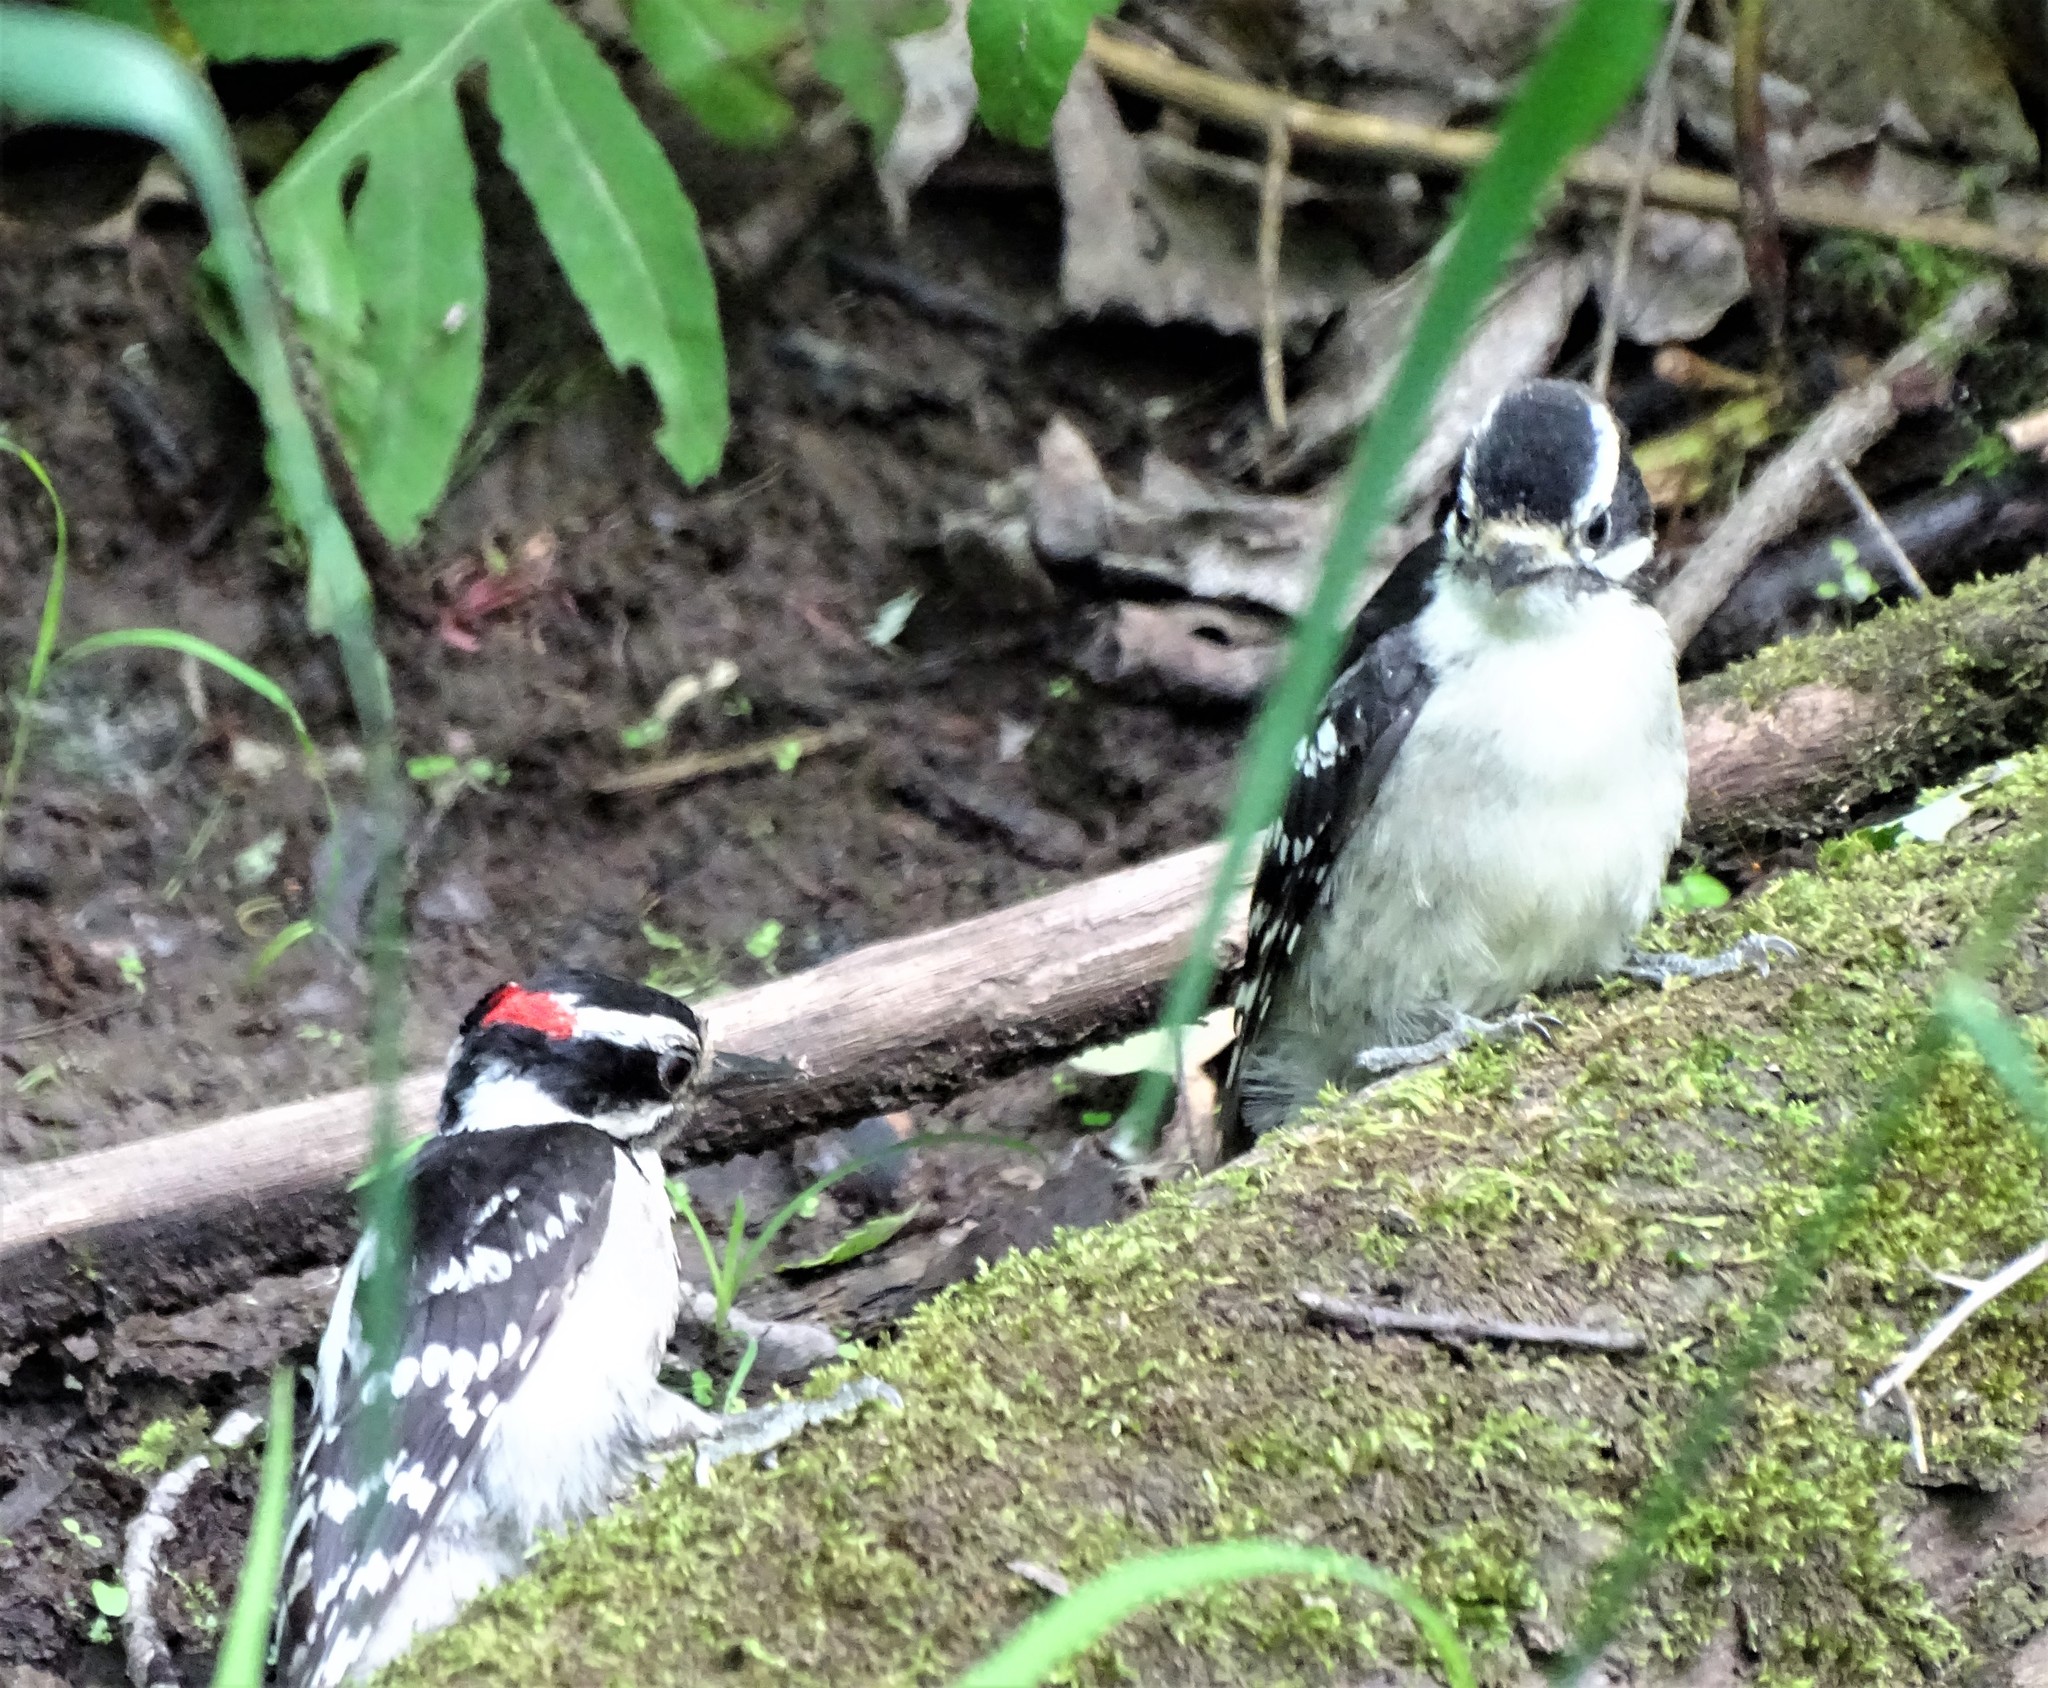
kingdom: Animalia
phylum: Chordata
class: Aves
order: Piciformes
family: Picidae
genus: Dryobates
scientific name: Dryobates pubescens
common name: Downy woodpecker
